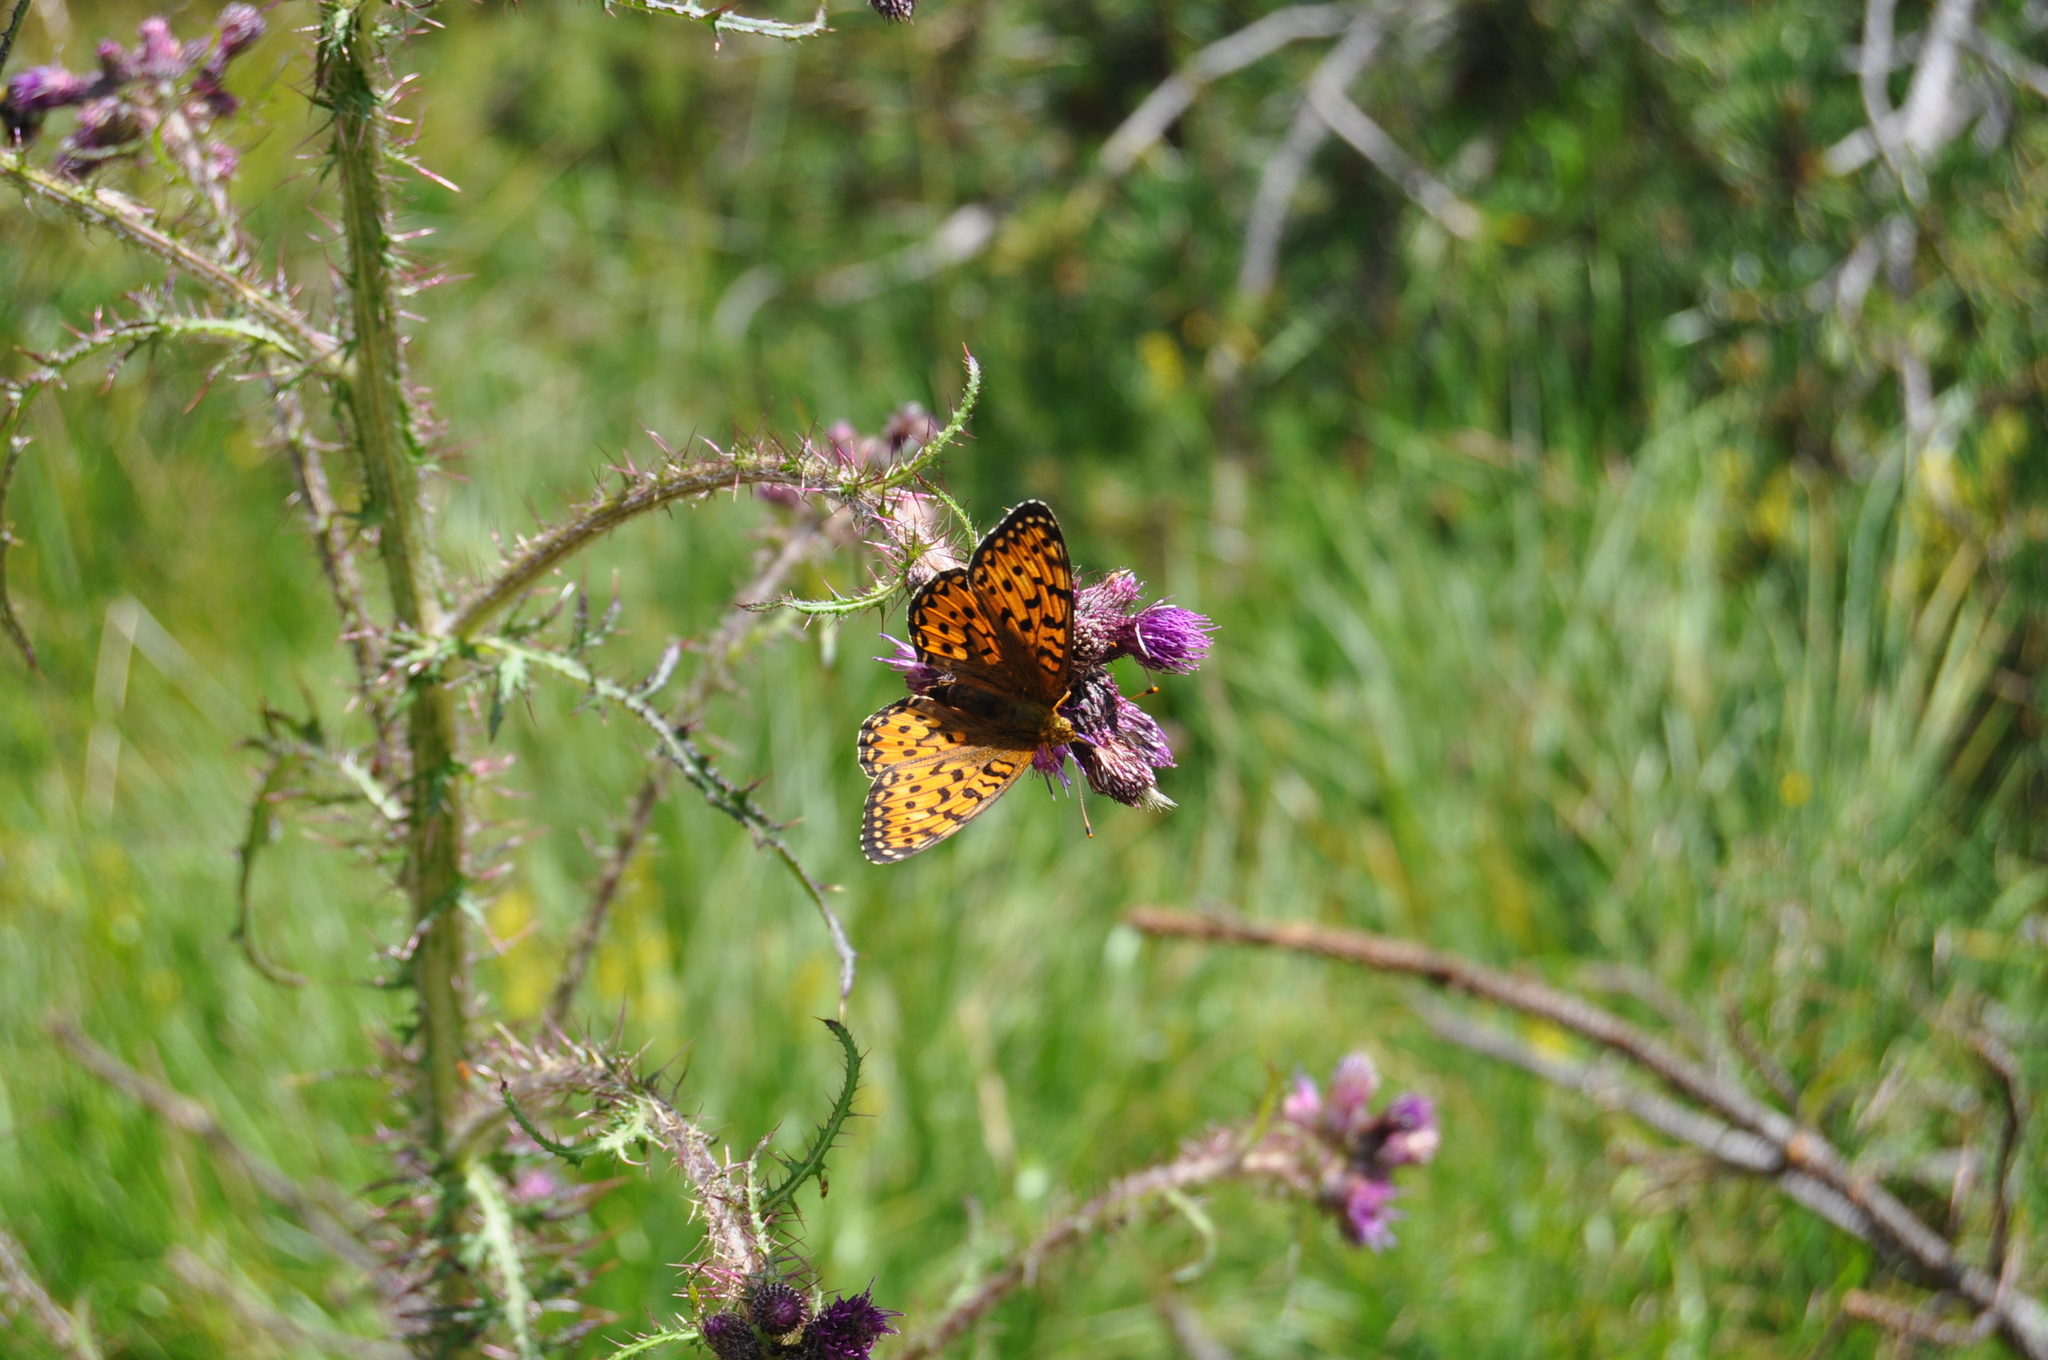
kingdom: Animalia
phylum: Arthropoda
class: Insecta
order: Lepidoptera
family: Nymphalidae
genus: Speyeria
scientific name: Speyeria aglaja
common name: Dark green fritillary
